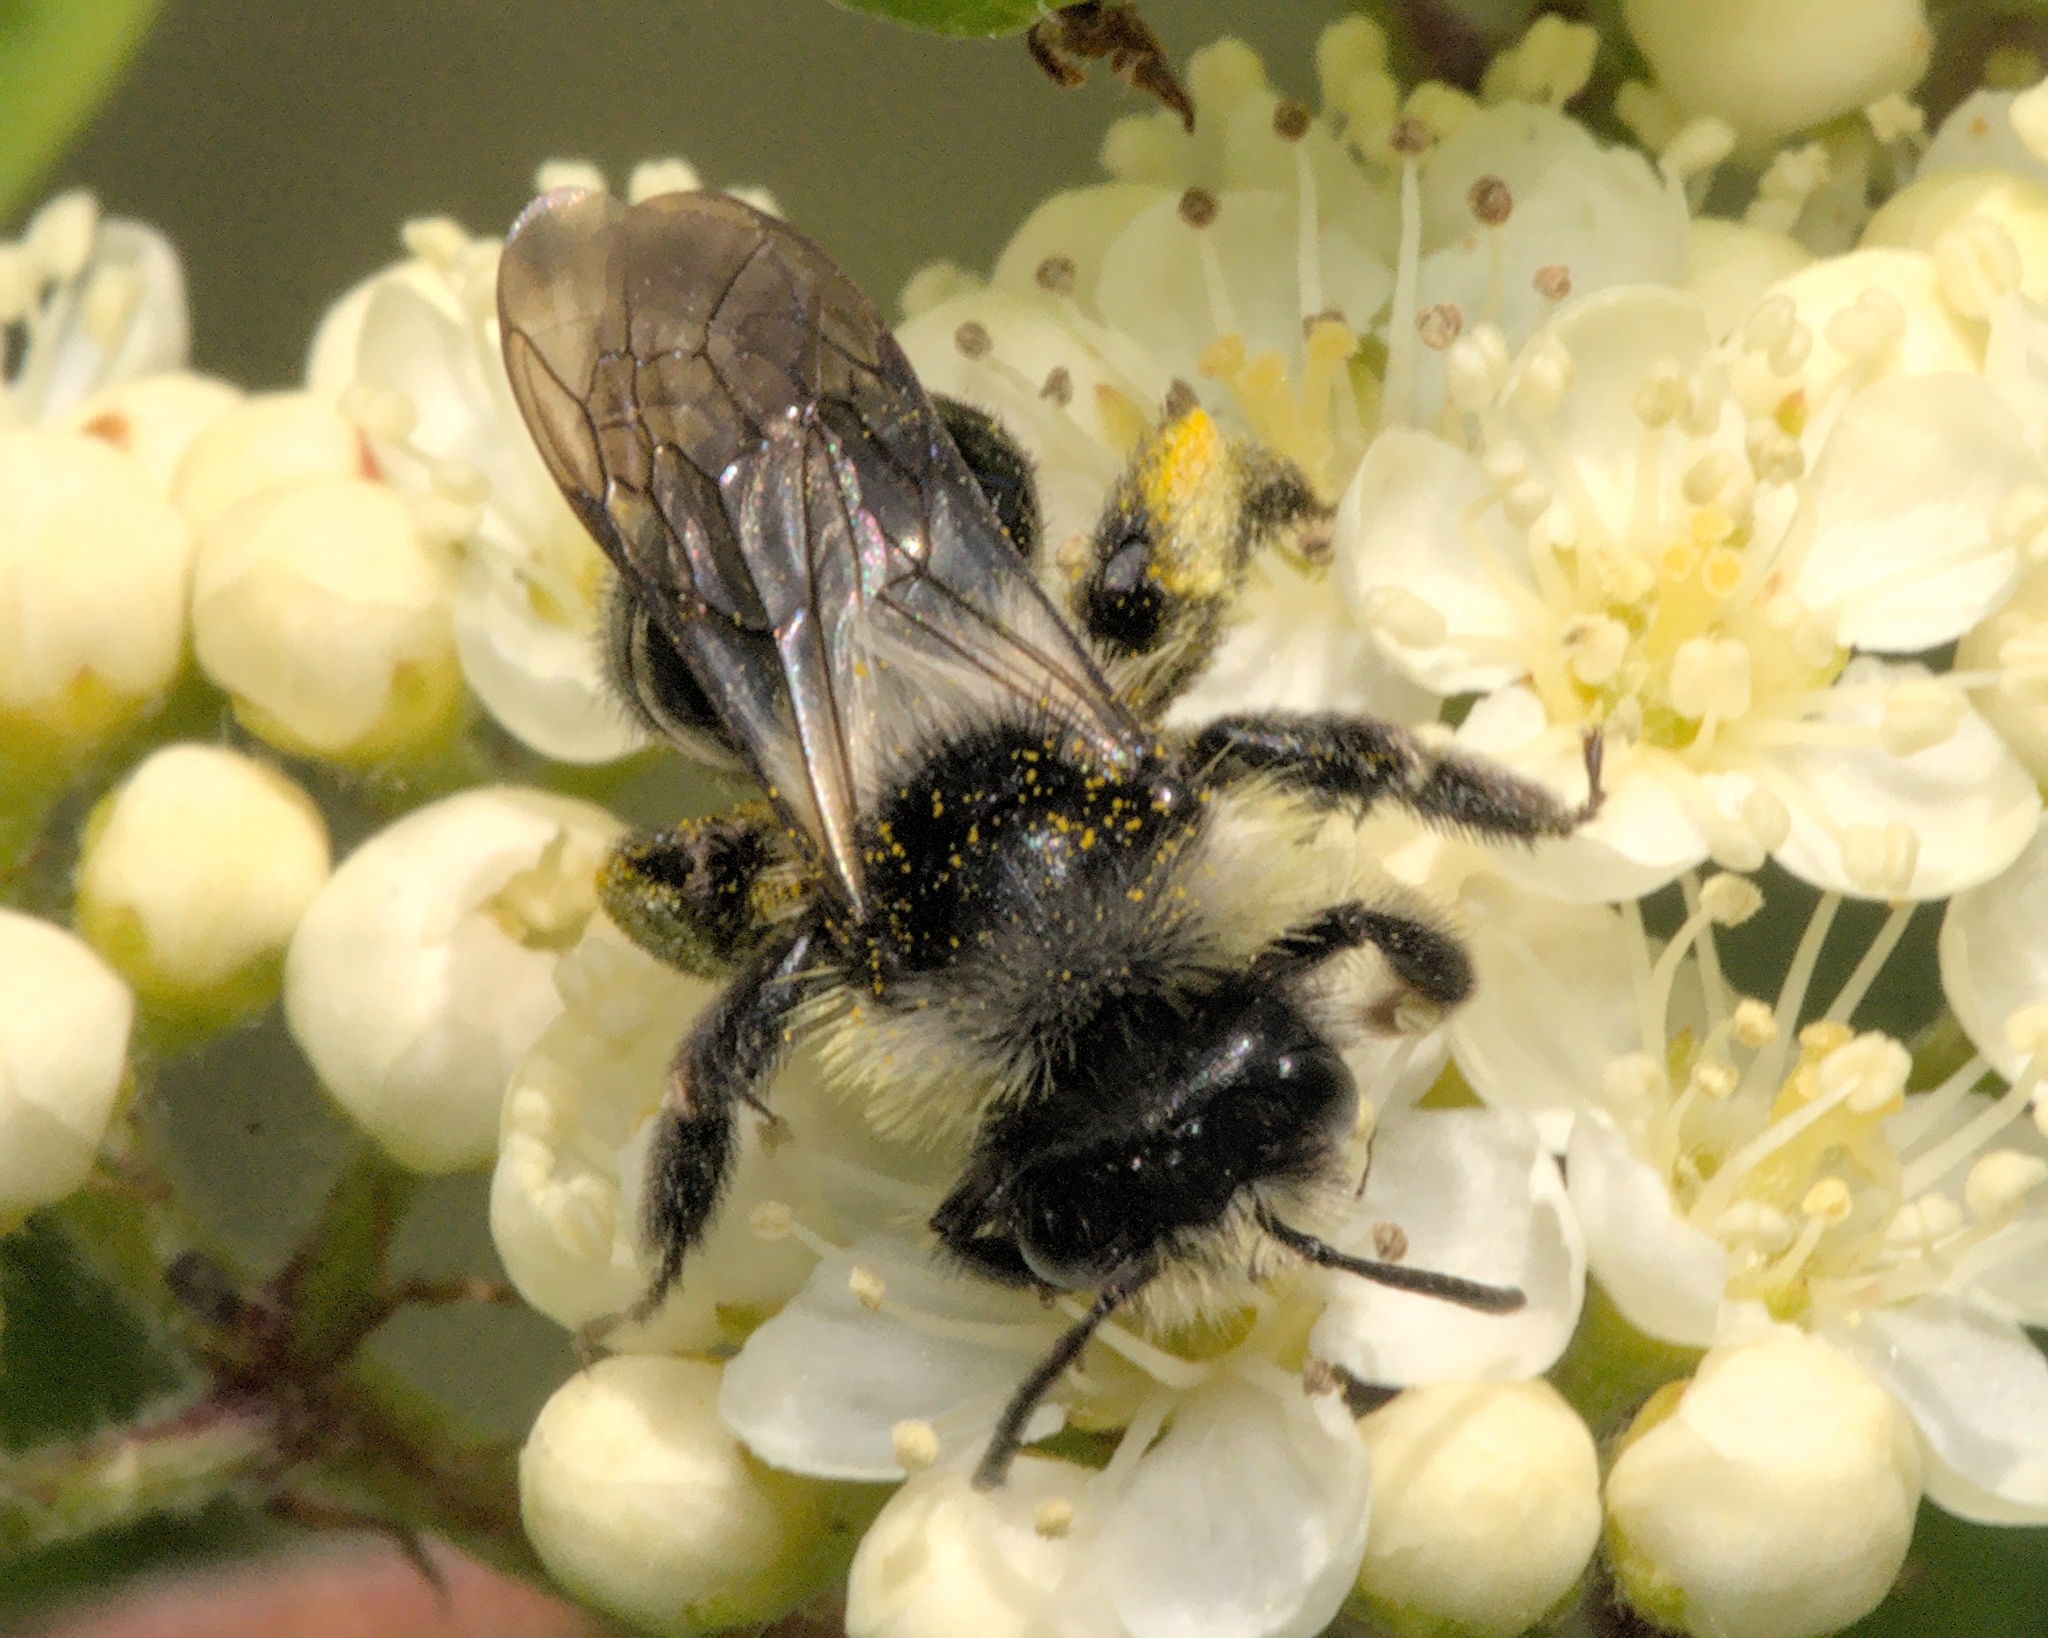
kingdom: Animalia
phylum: Arthropoda
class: Insecta
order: Hymenoptera
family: Andrenidae
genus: Andrena
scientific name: Andrena cineraria
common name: Ashy mining bee
